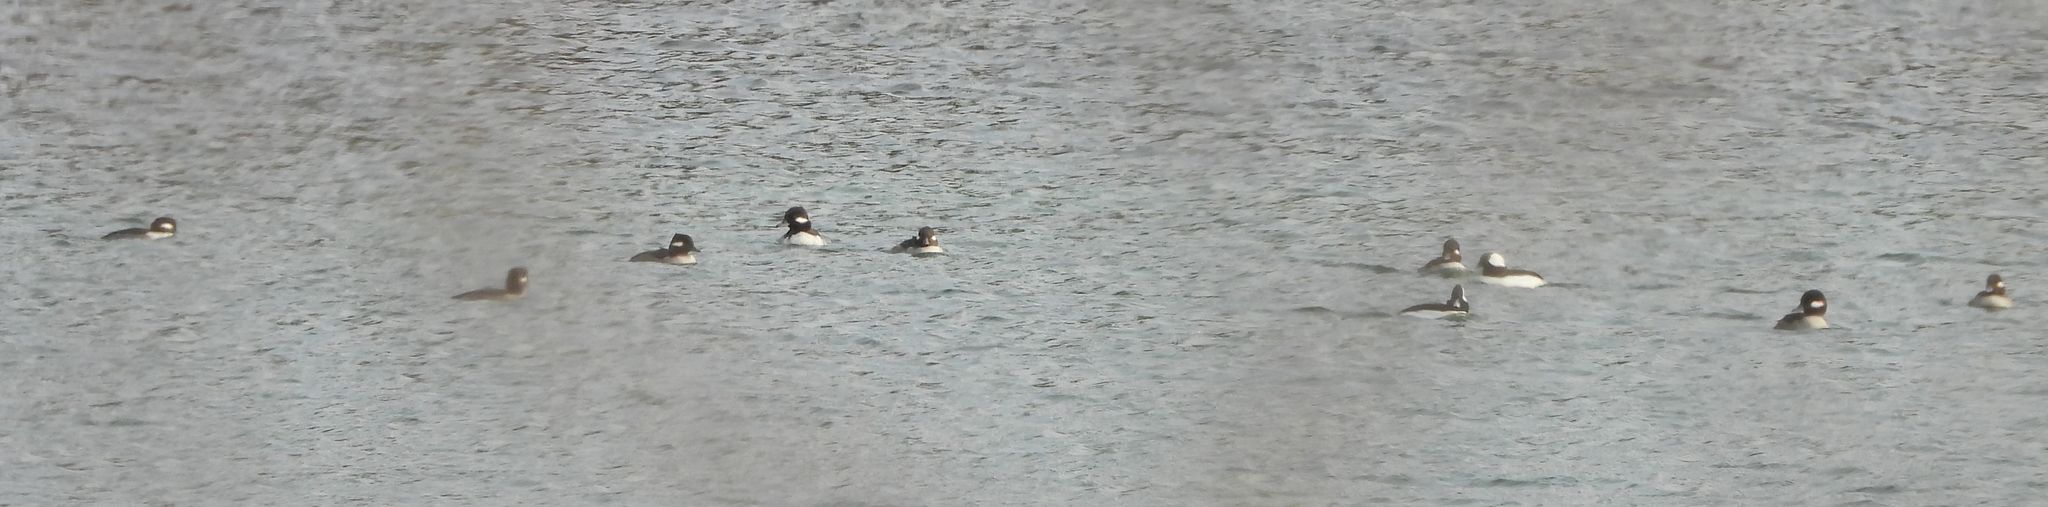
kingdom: Animalia
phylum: Chordata
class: Aves
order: Anseriformes
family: Anatidae
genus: Bucephala
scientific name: Bucephala albeola
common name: Bufflehead
